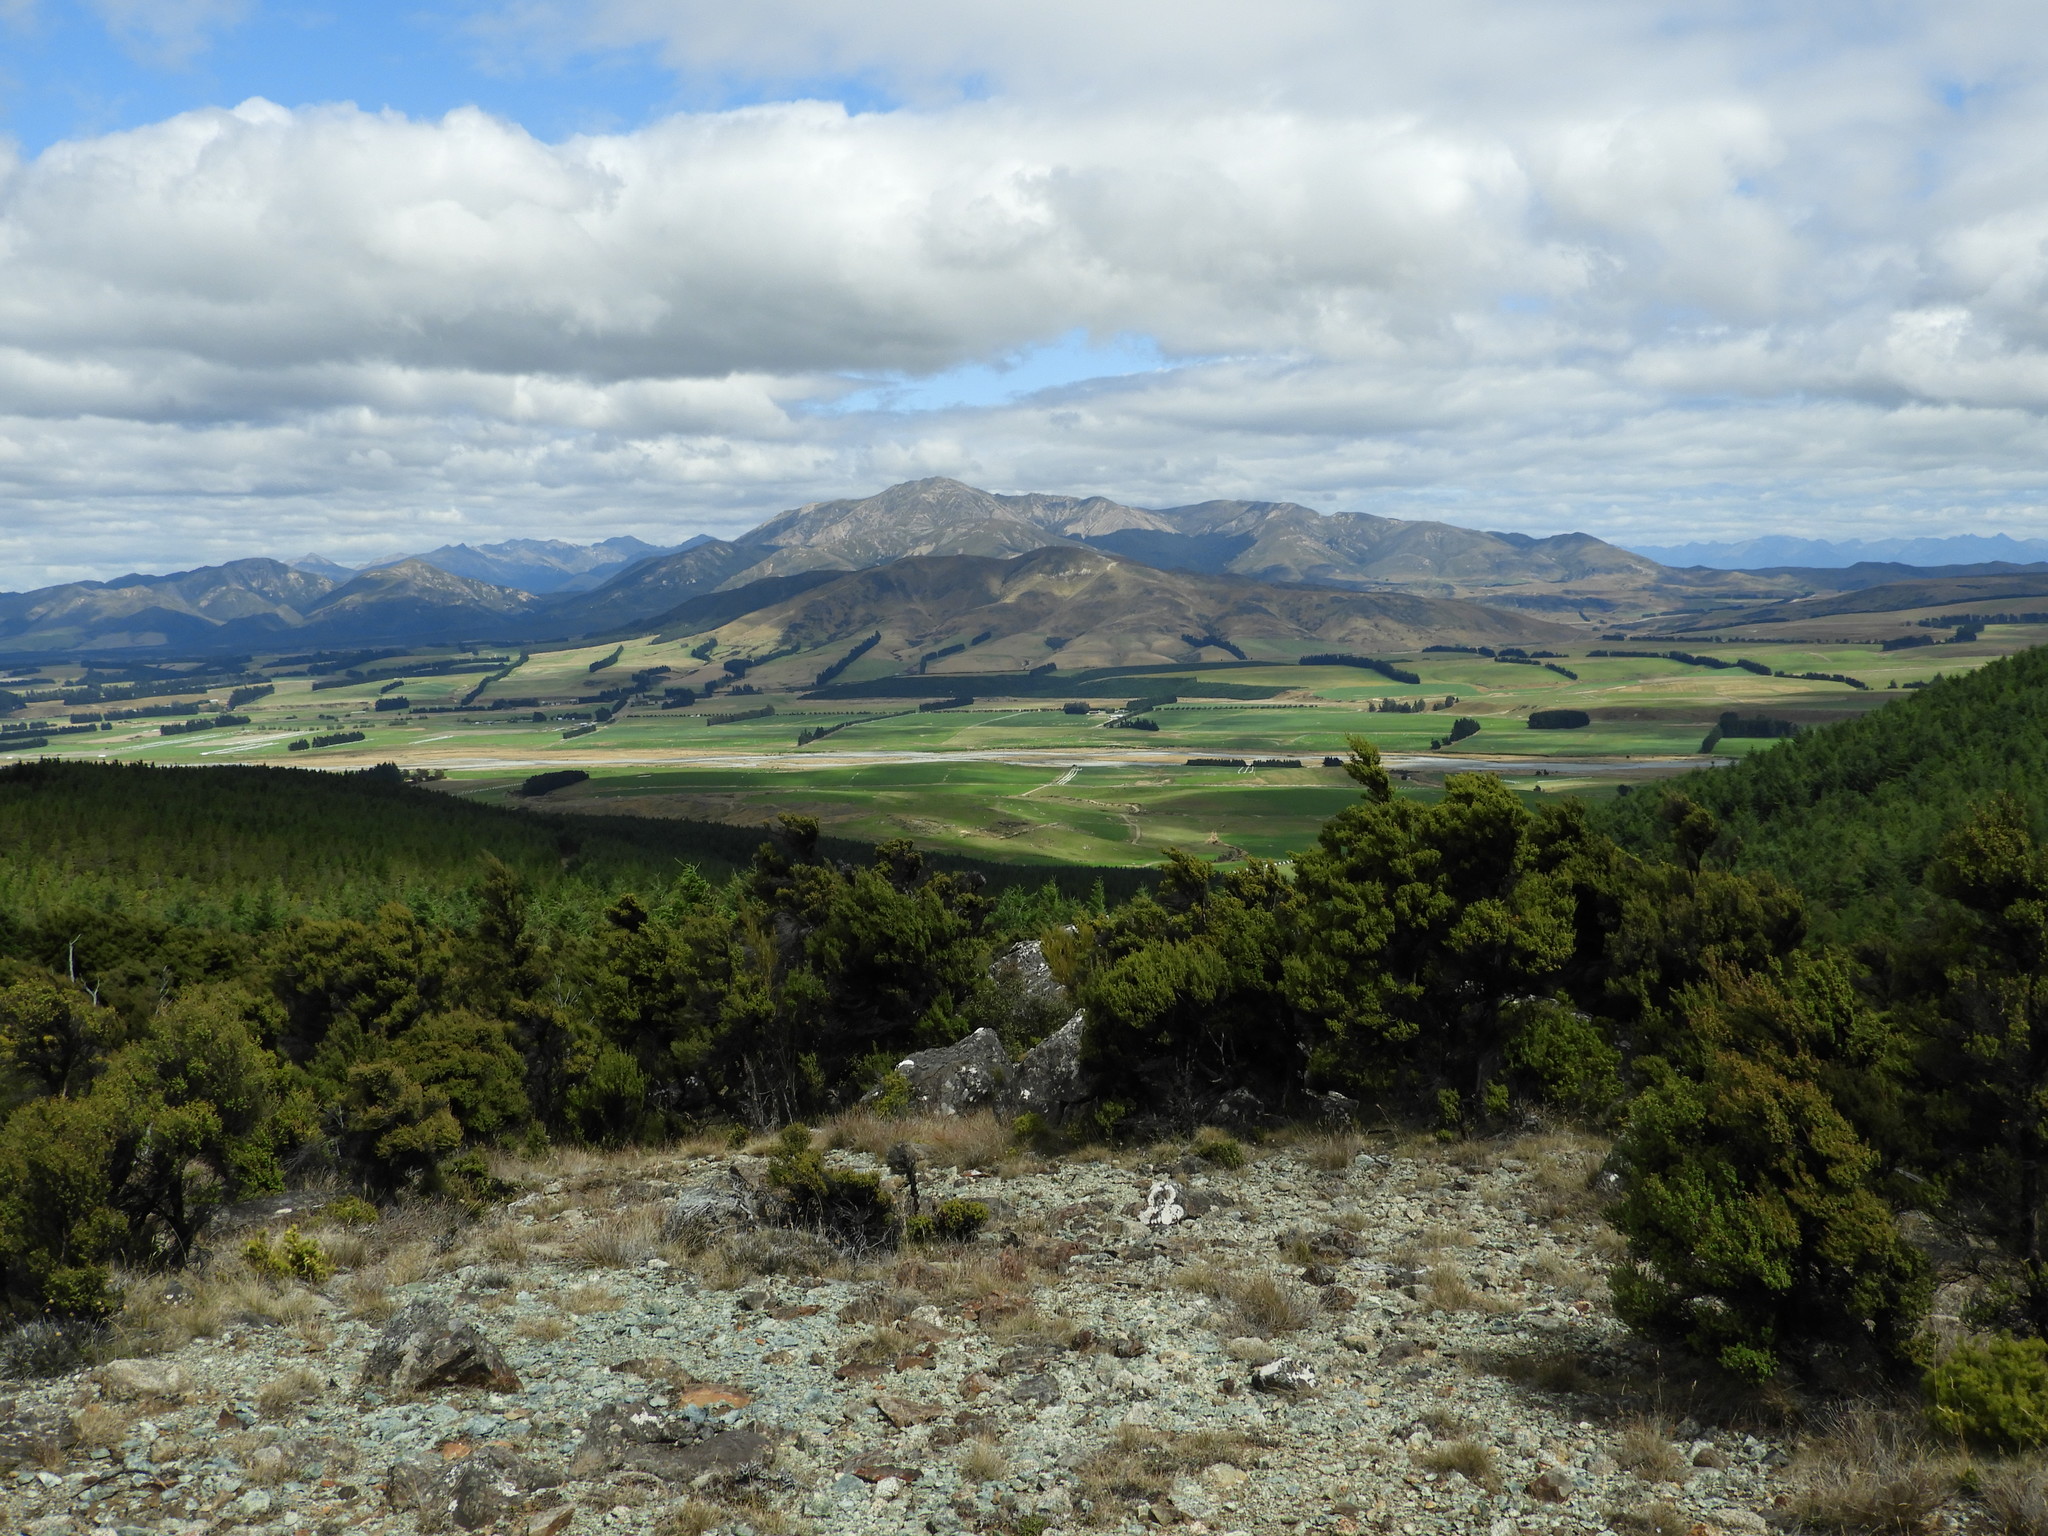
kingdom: Plantae
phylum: Tracheophyta
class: Magnoliopsida
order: Myrtales
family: Myrtaceae
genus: Leptospermum
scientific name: Leptospermum scoparium
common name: Broom tea-tree
